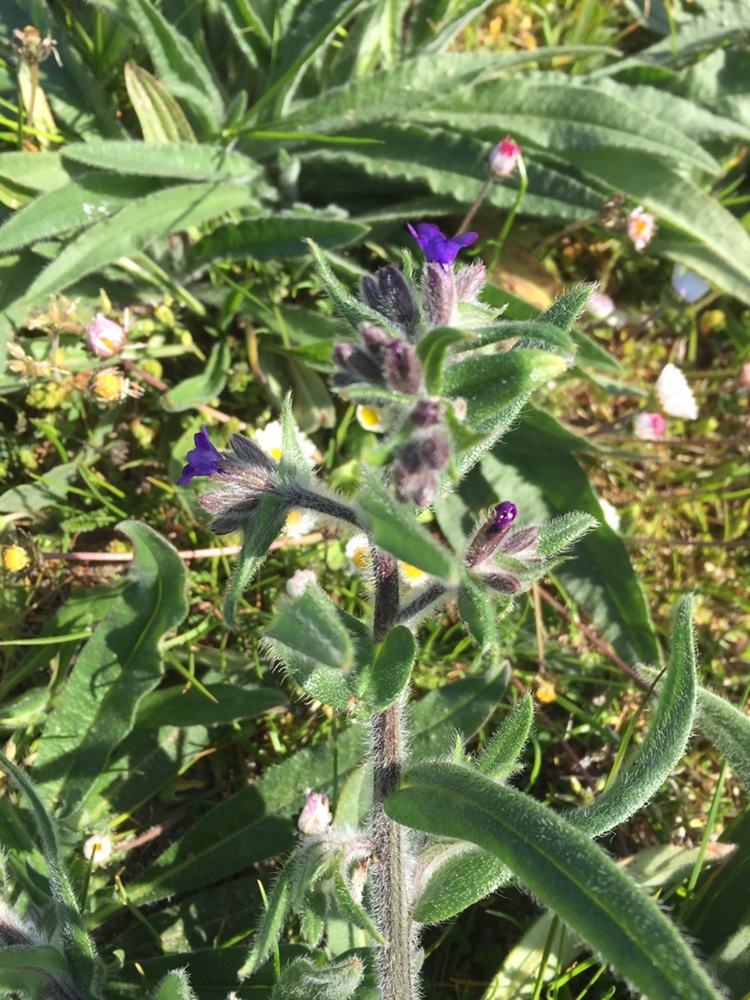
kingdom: Plantae
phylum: Tracheophyta
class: Magnoliopsida
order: Boraginales
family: Boraginaceae
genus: Anchusa
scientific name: Anchusa officinalis
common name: Alkanet
